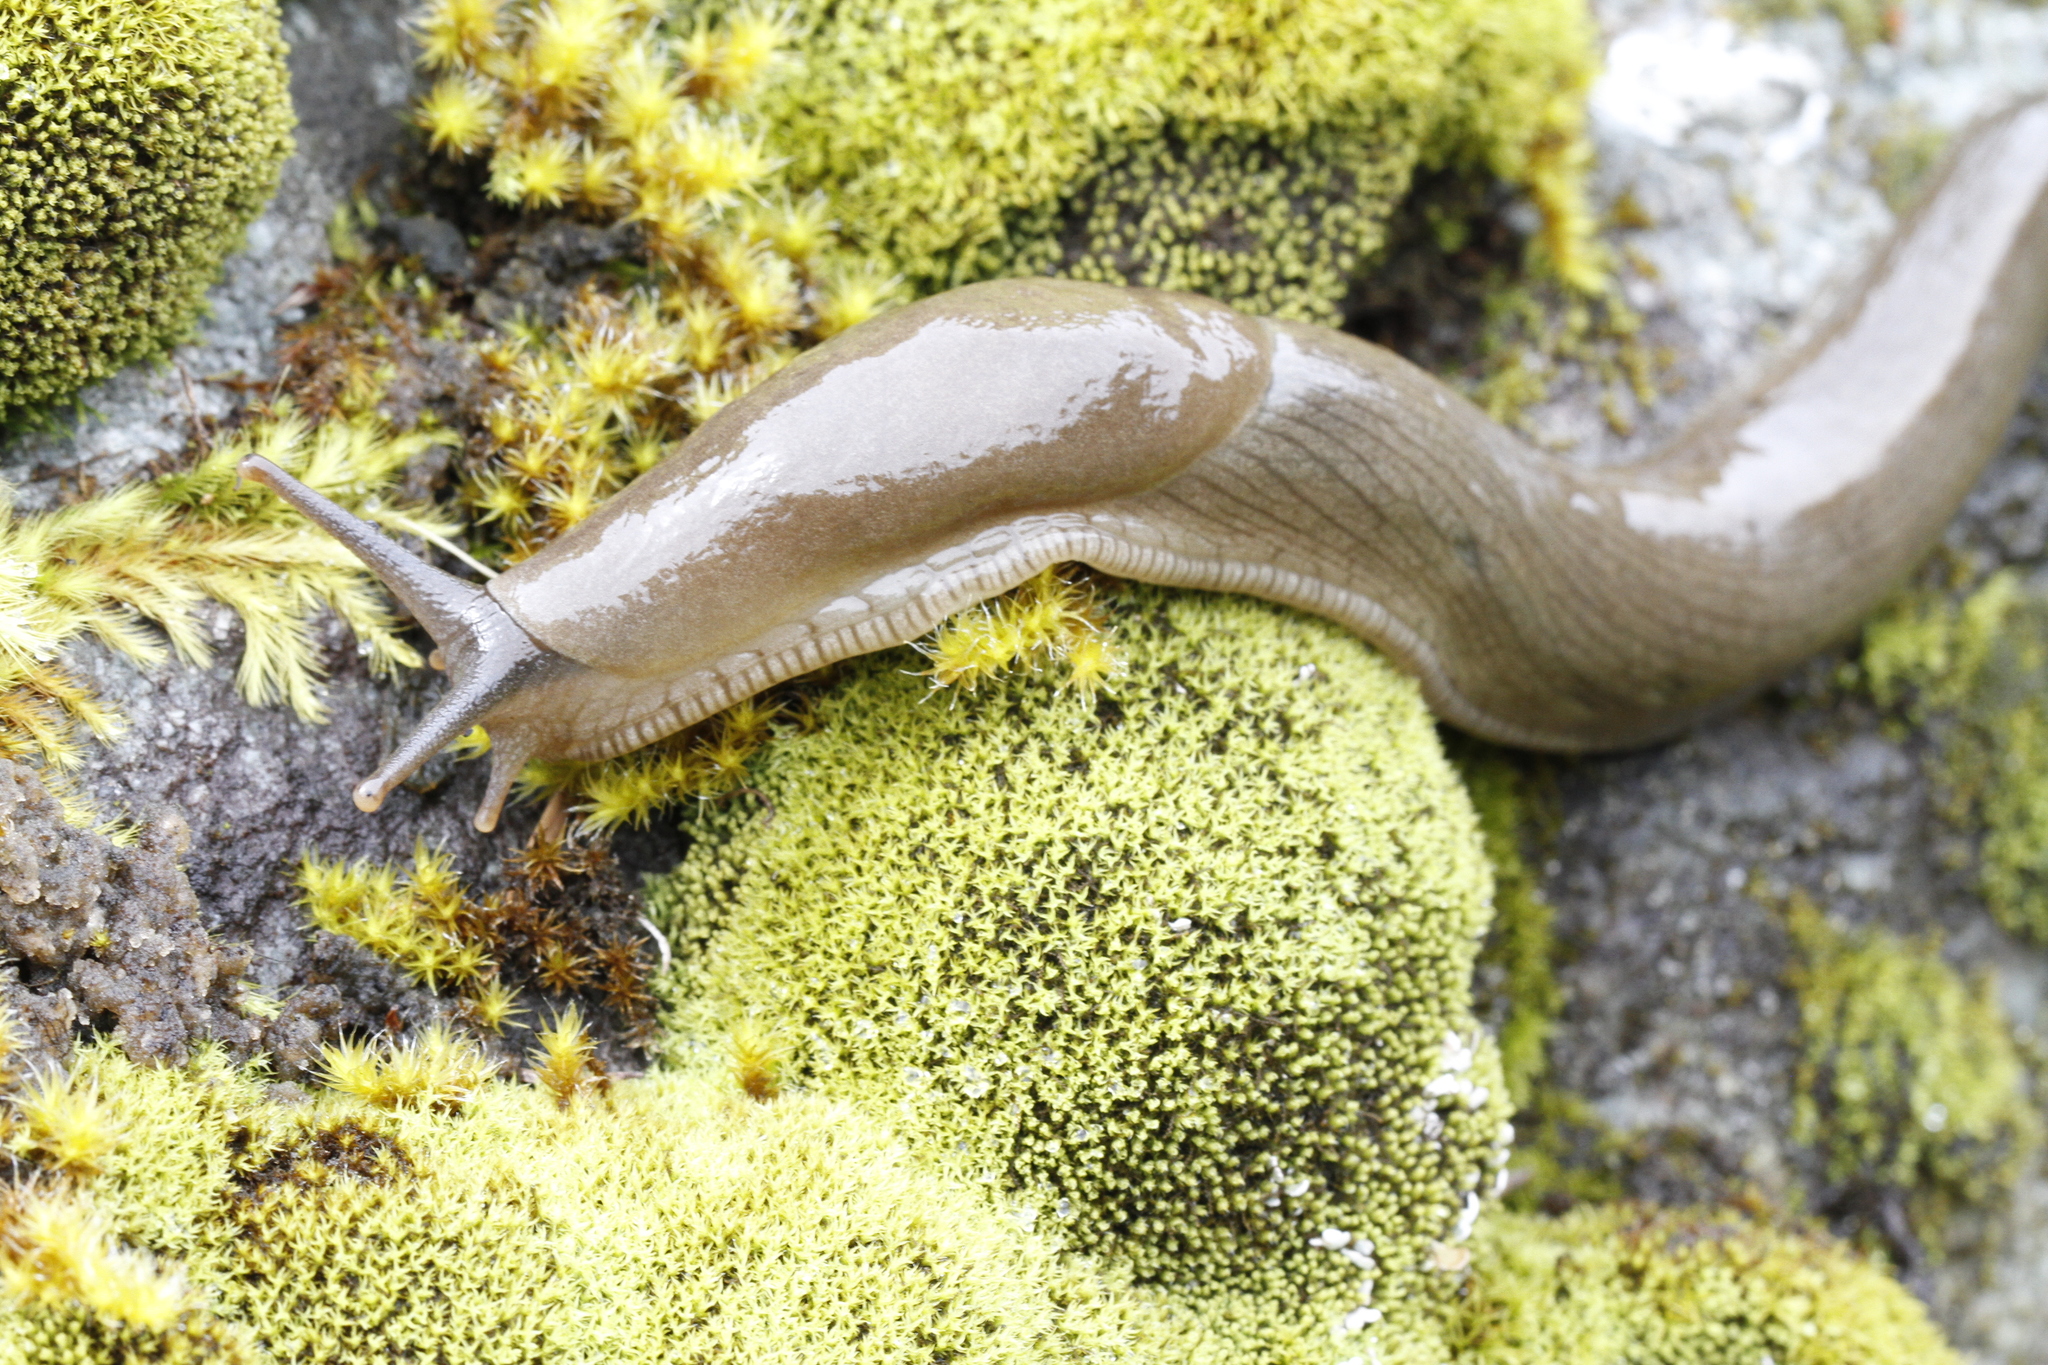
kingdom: Animalia
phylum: Mollusca
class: Gastropoda
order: Stylommatophora
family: Ariolimacidae
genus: Ariolimax
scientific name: Ariolimax columbianus
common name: Pacific banana slug
